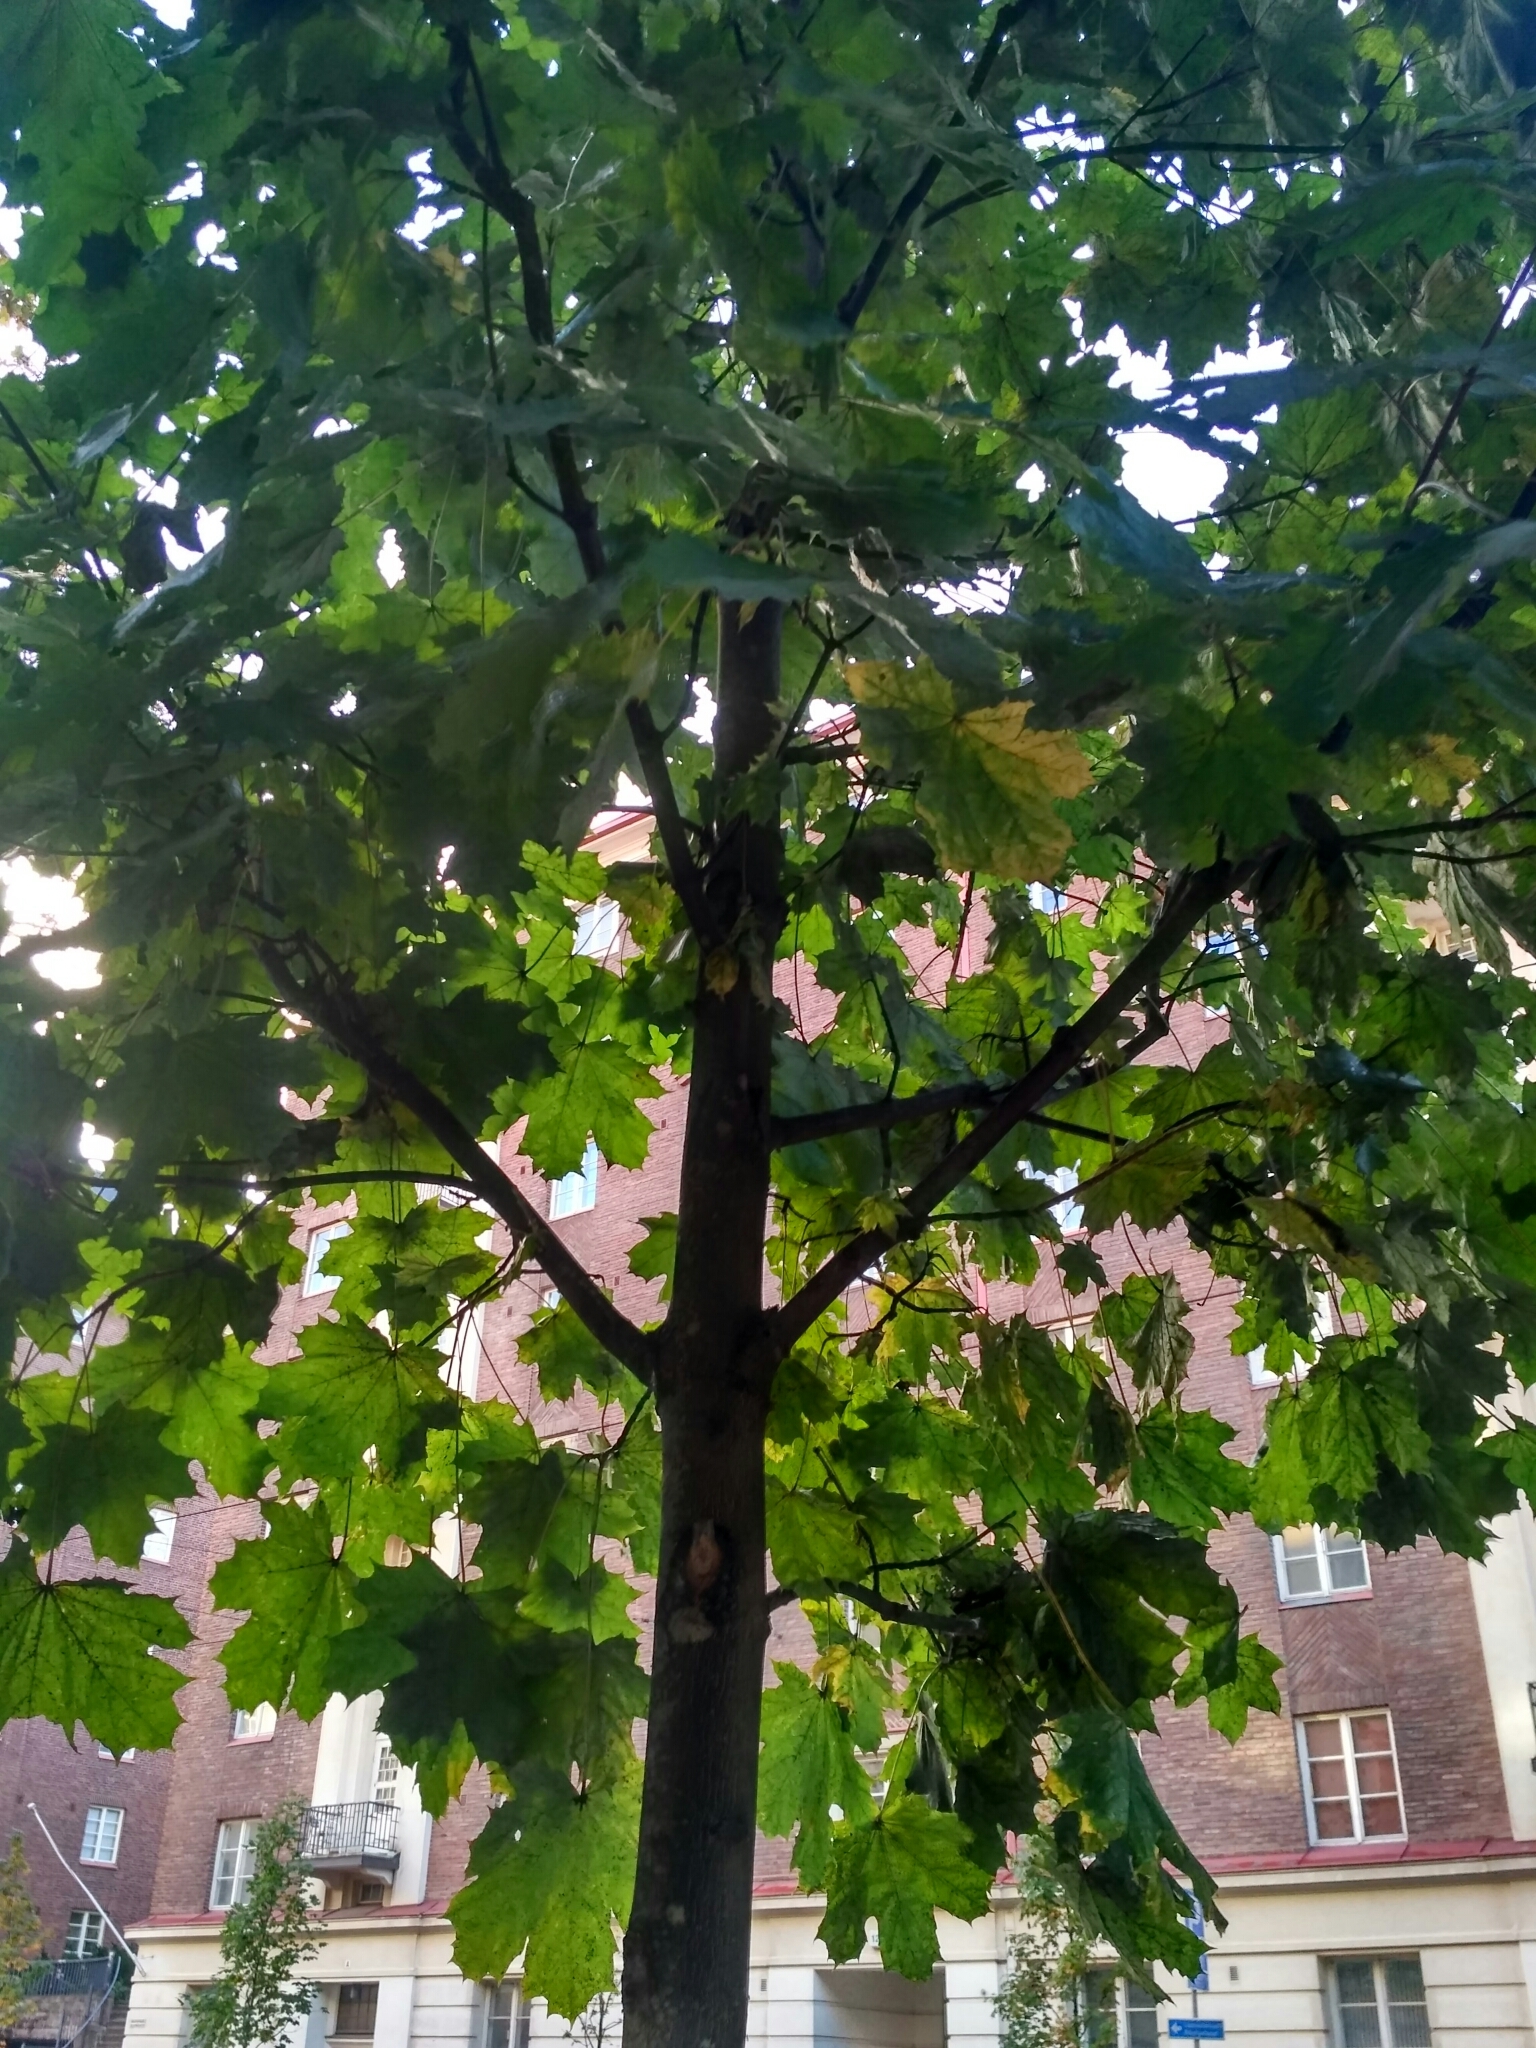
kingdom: Plantae
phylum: Tracheophyta
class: Magnoliopsida
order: Sapindales
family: Sapindaceae
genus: Acer
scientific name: Acer platanoides
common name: Norway maple
